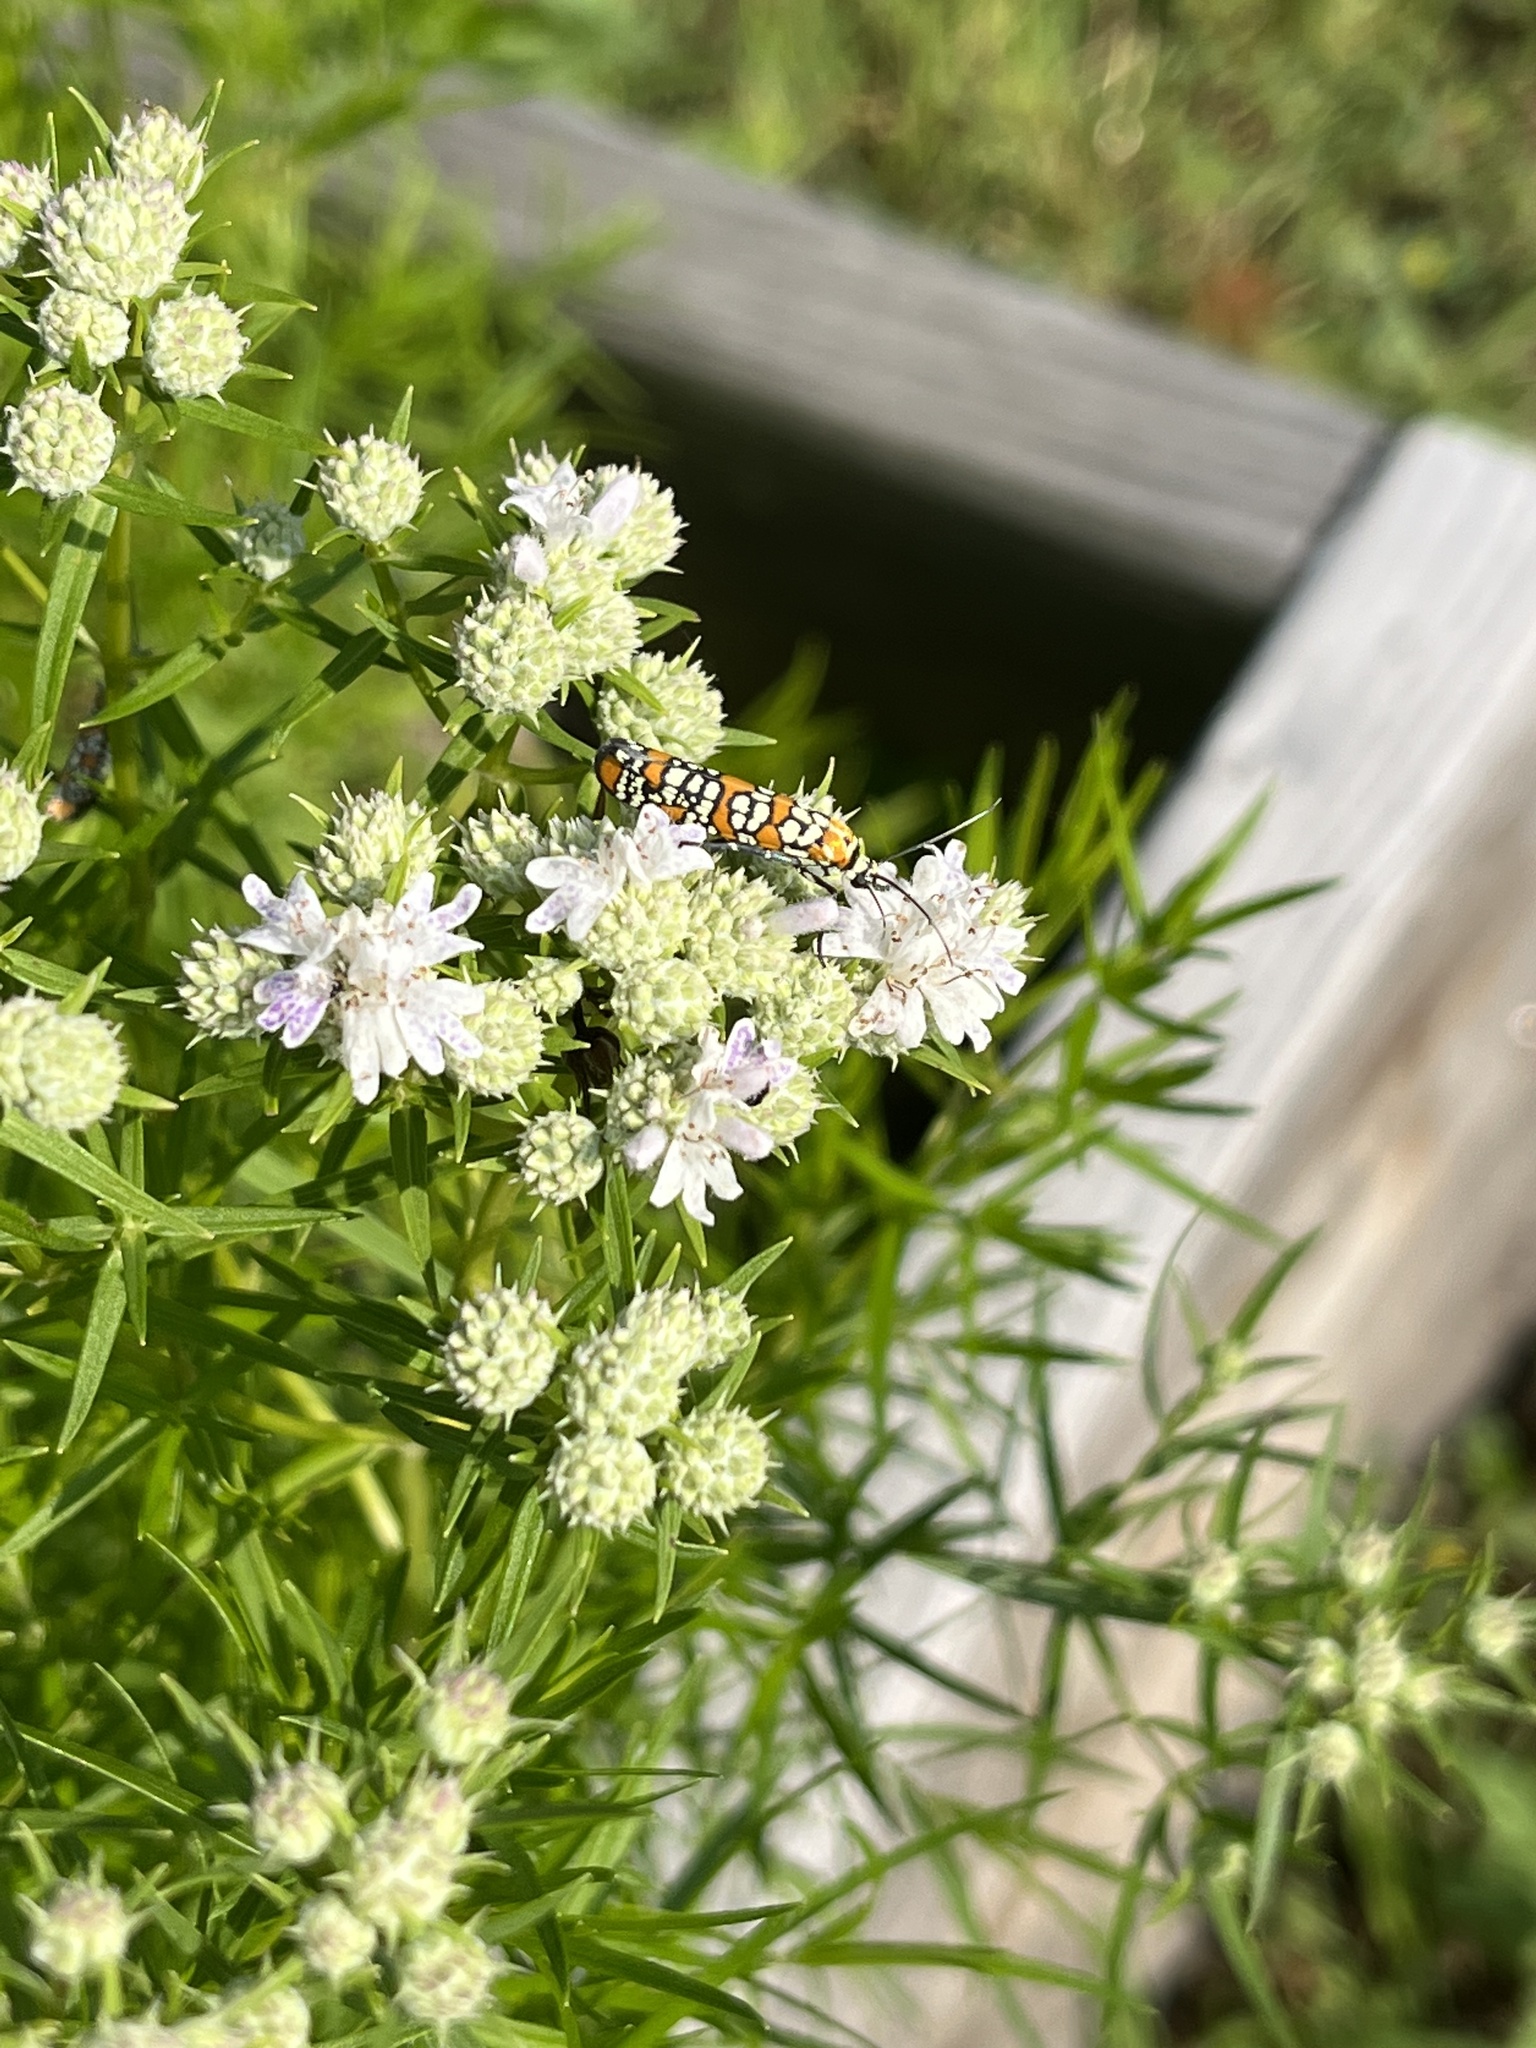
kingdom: Animalia
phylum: Arthropoda
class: Insecta
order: Lepidoptera
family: Attevidae
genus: Atteva
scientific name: Atteva punctella
